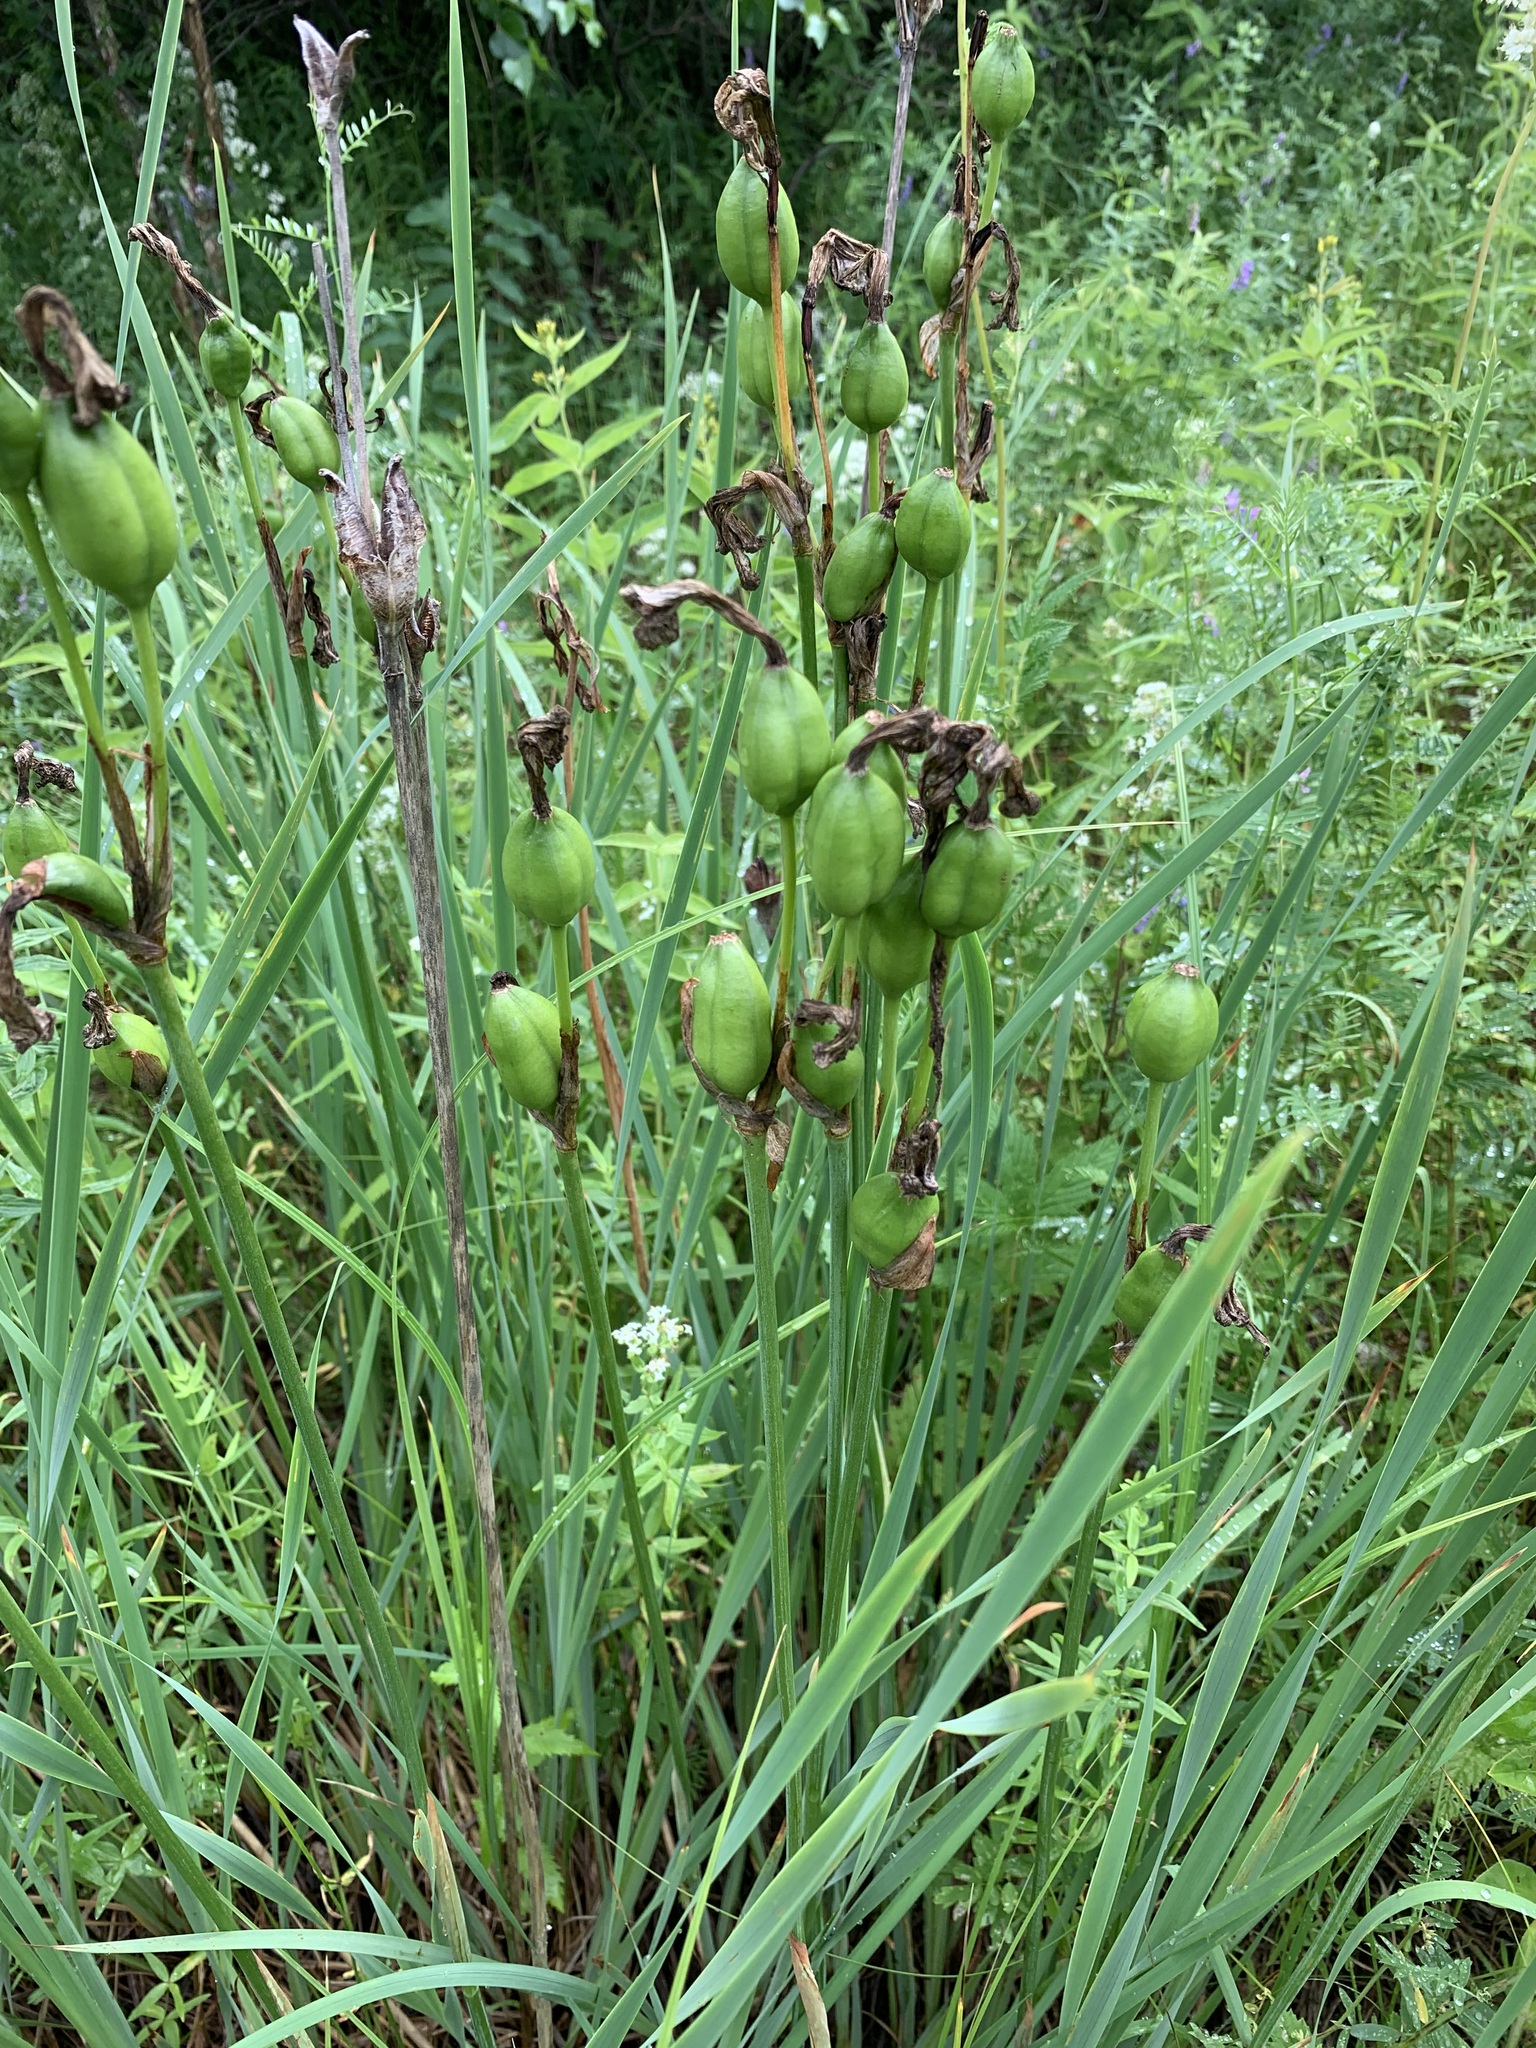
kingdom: Plantae
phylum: Tracheophyta
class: Liliopsida
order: Asparagales
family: Iridaceae
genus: Iris
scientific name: Iris sibirica
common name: Siberian iris
